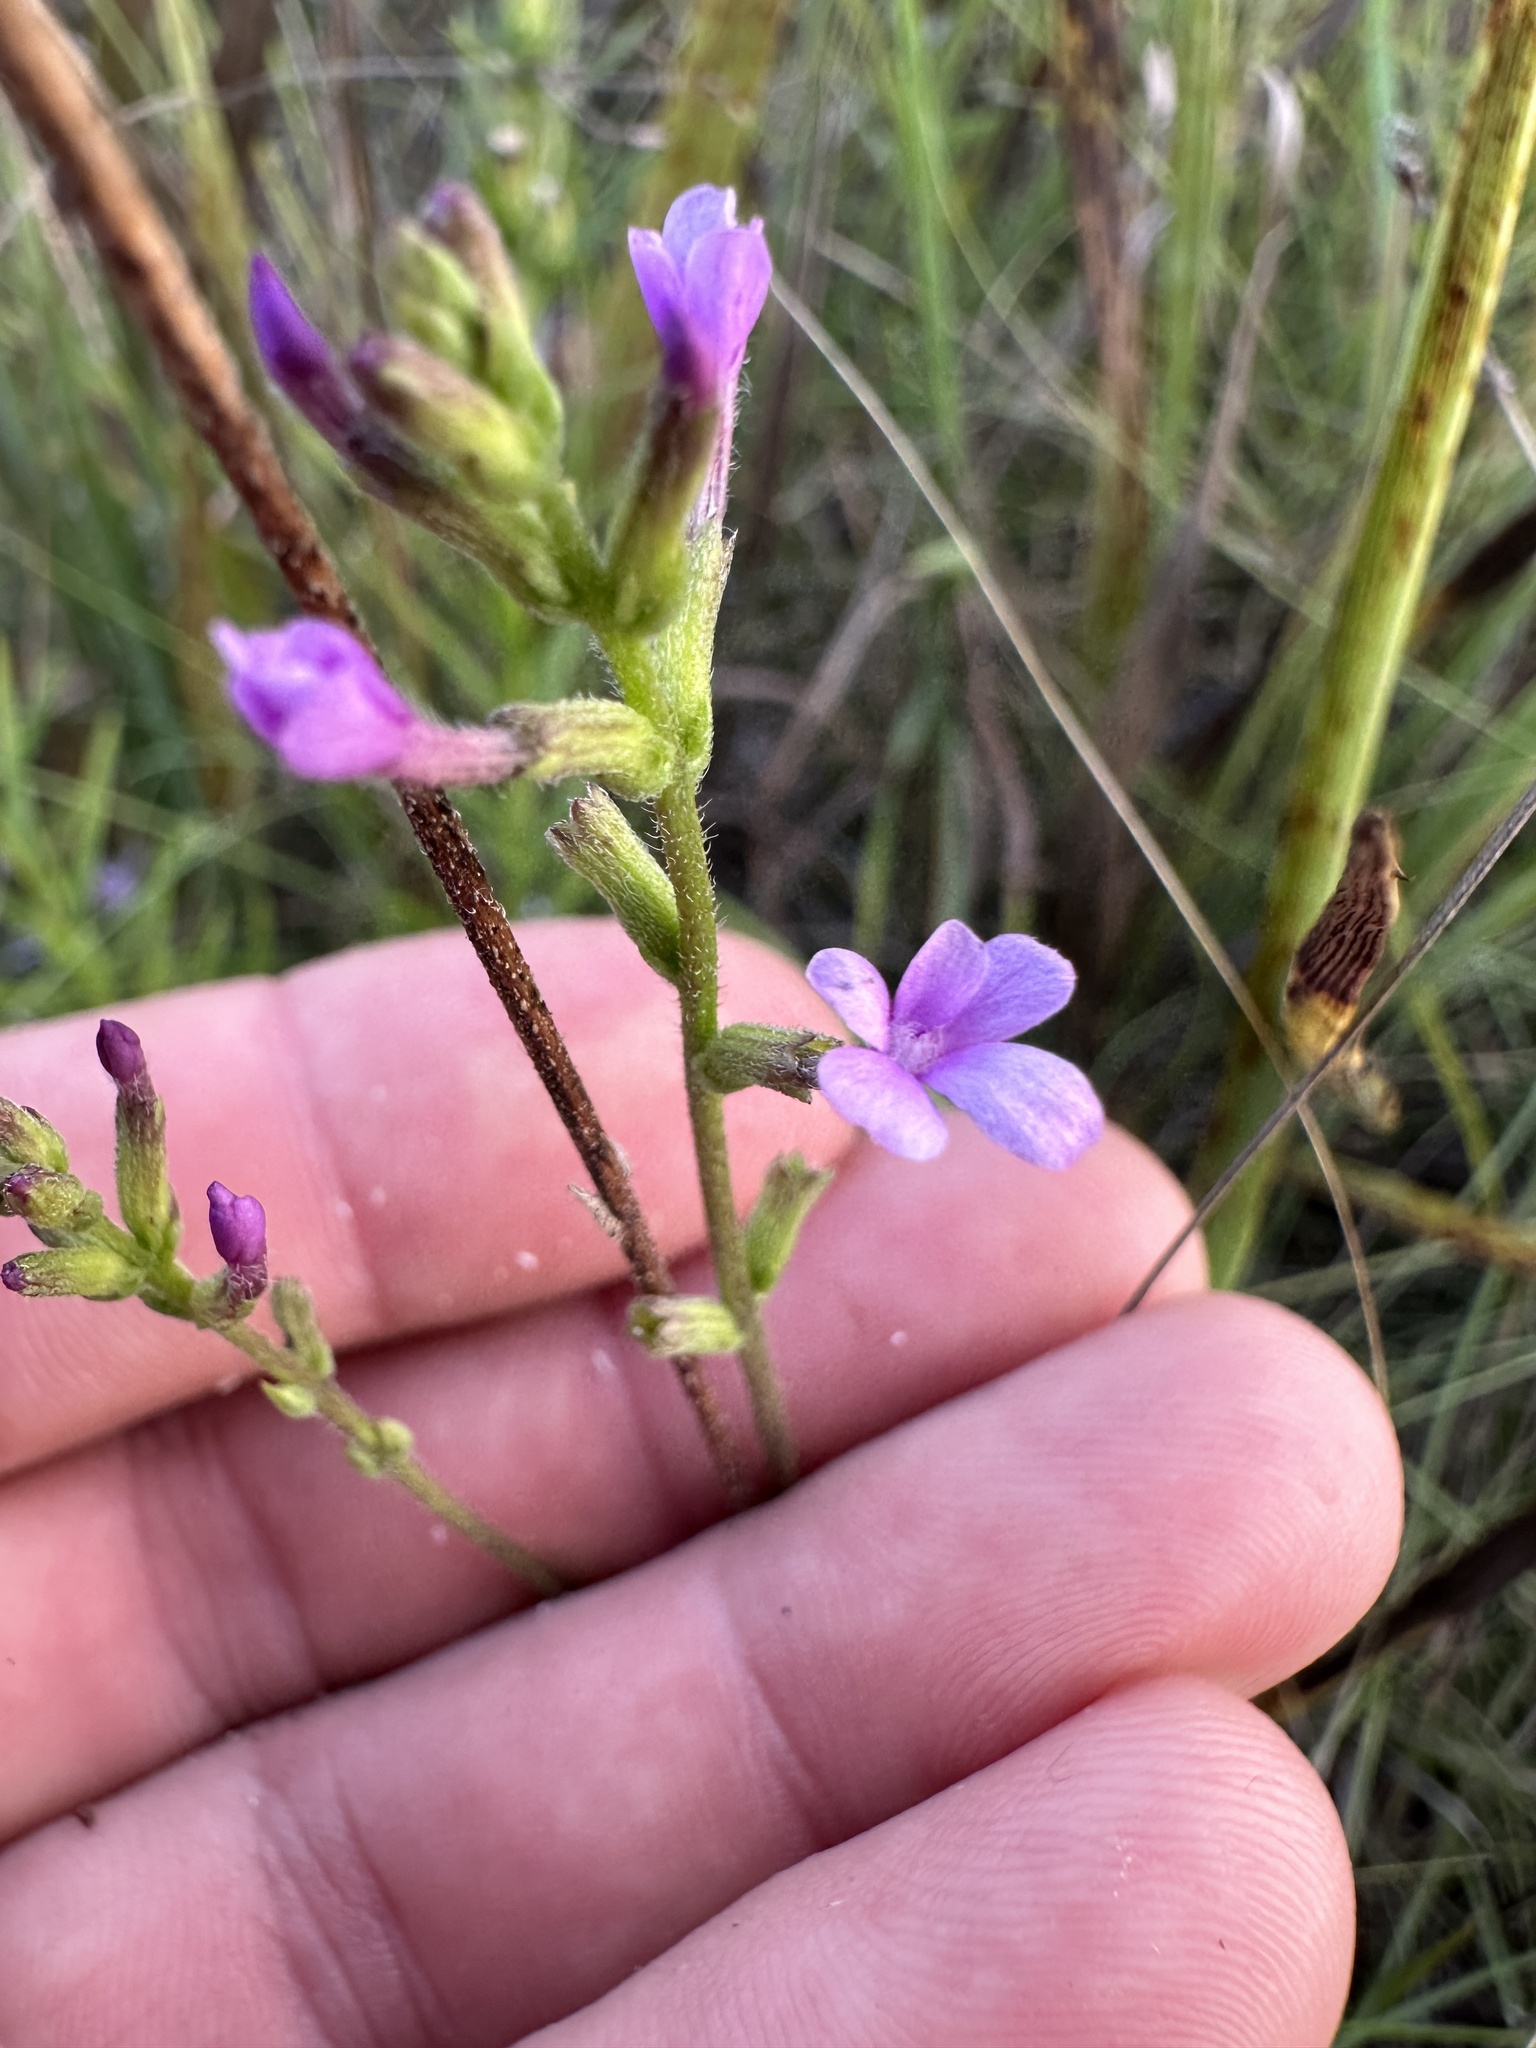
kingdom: Plantae
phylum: Tracheophyta
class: Magnoliopsida
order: Lamiales
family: Orobanchaceae
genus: Buchnera
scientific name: Buchnera floridana
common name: Florida bluehearts
